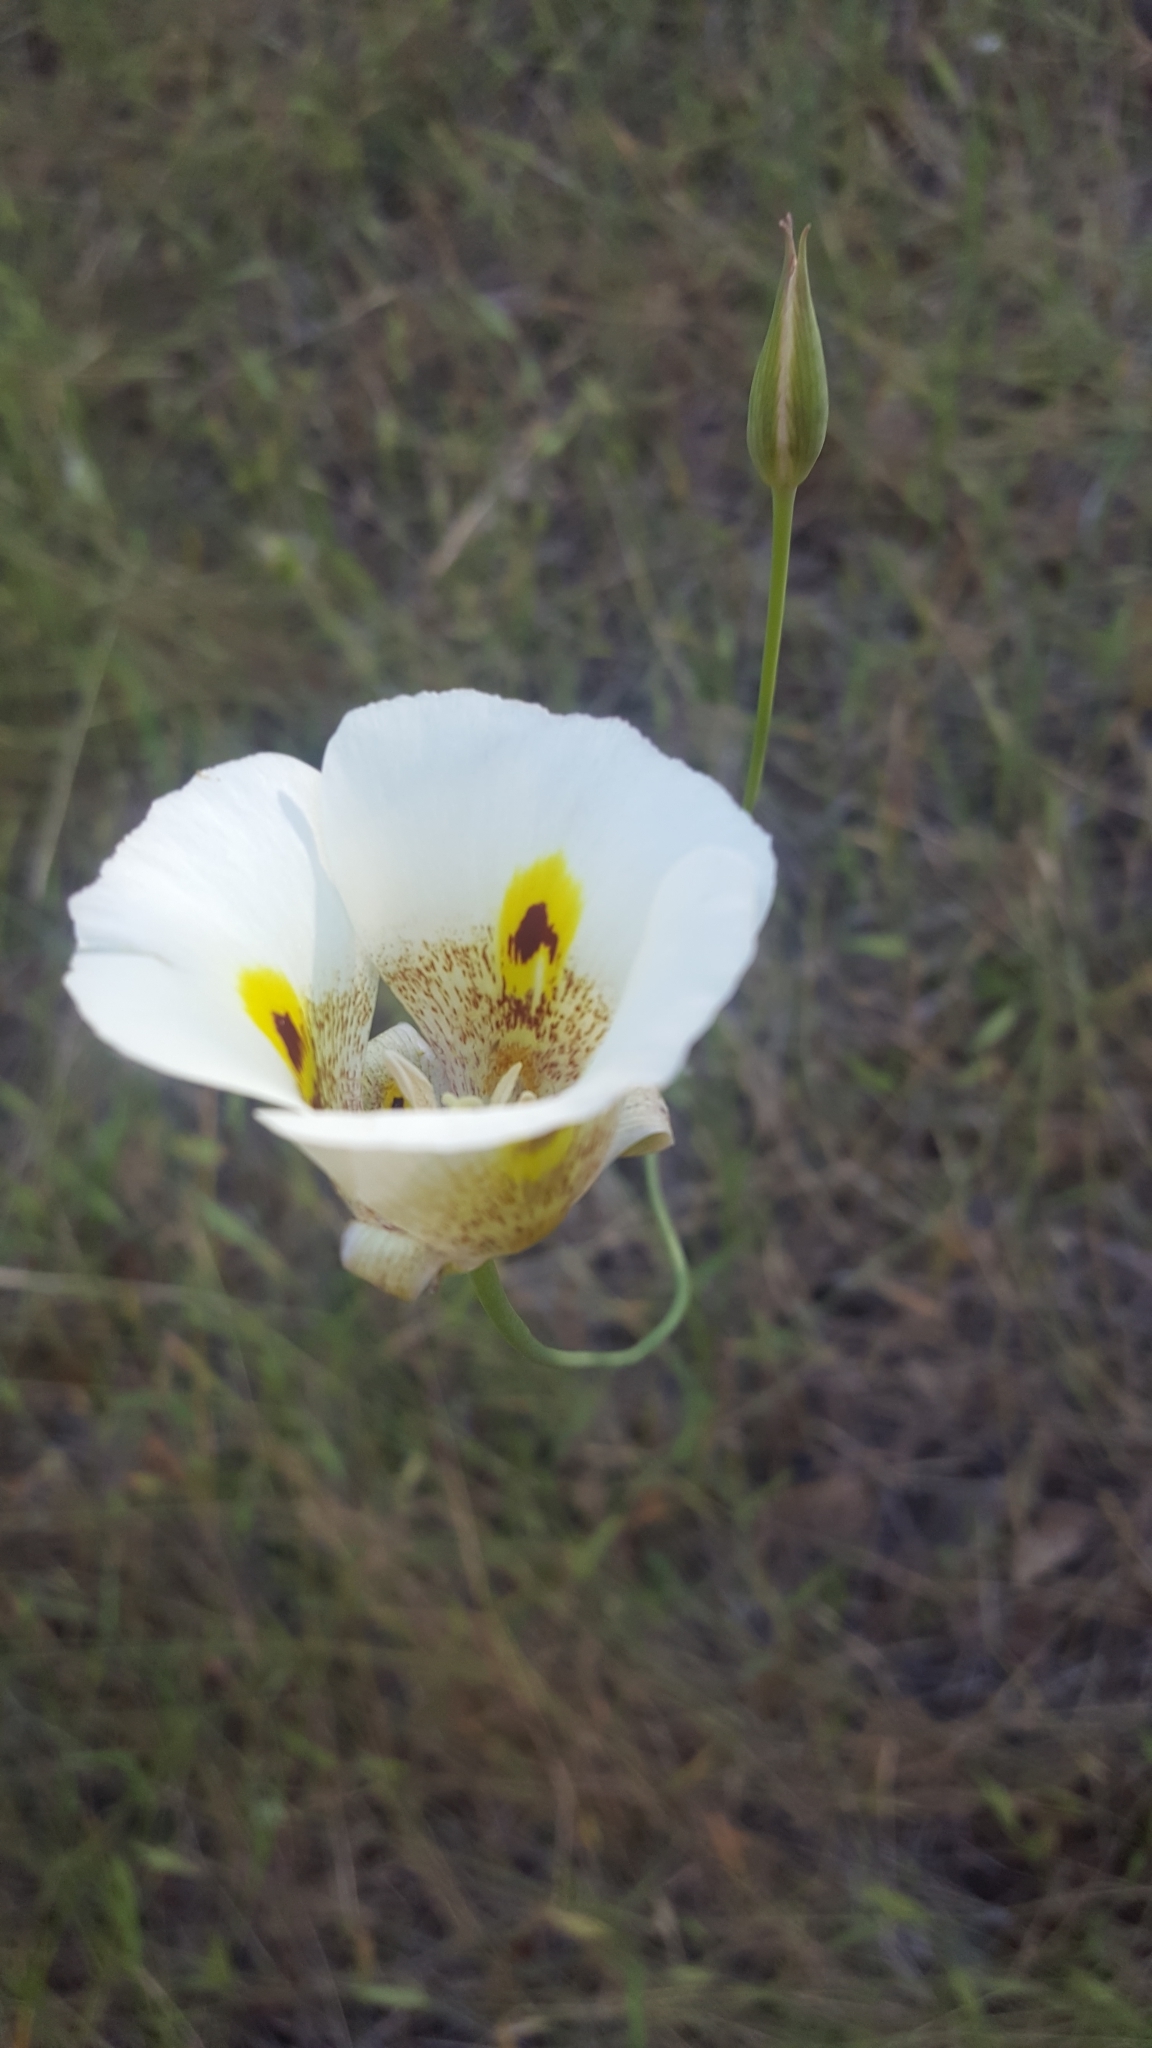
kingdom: Plantae
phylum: Tracheophyta
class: Liliopsida
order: Liliales
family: Liliaceae
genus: Calochortus
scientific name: Calochortus superbus
